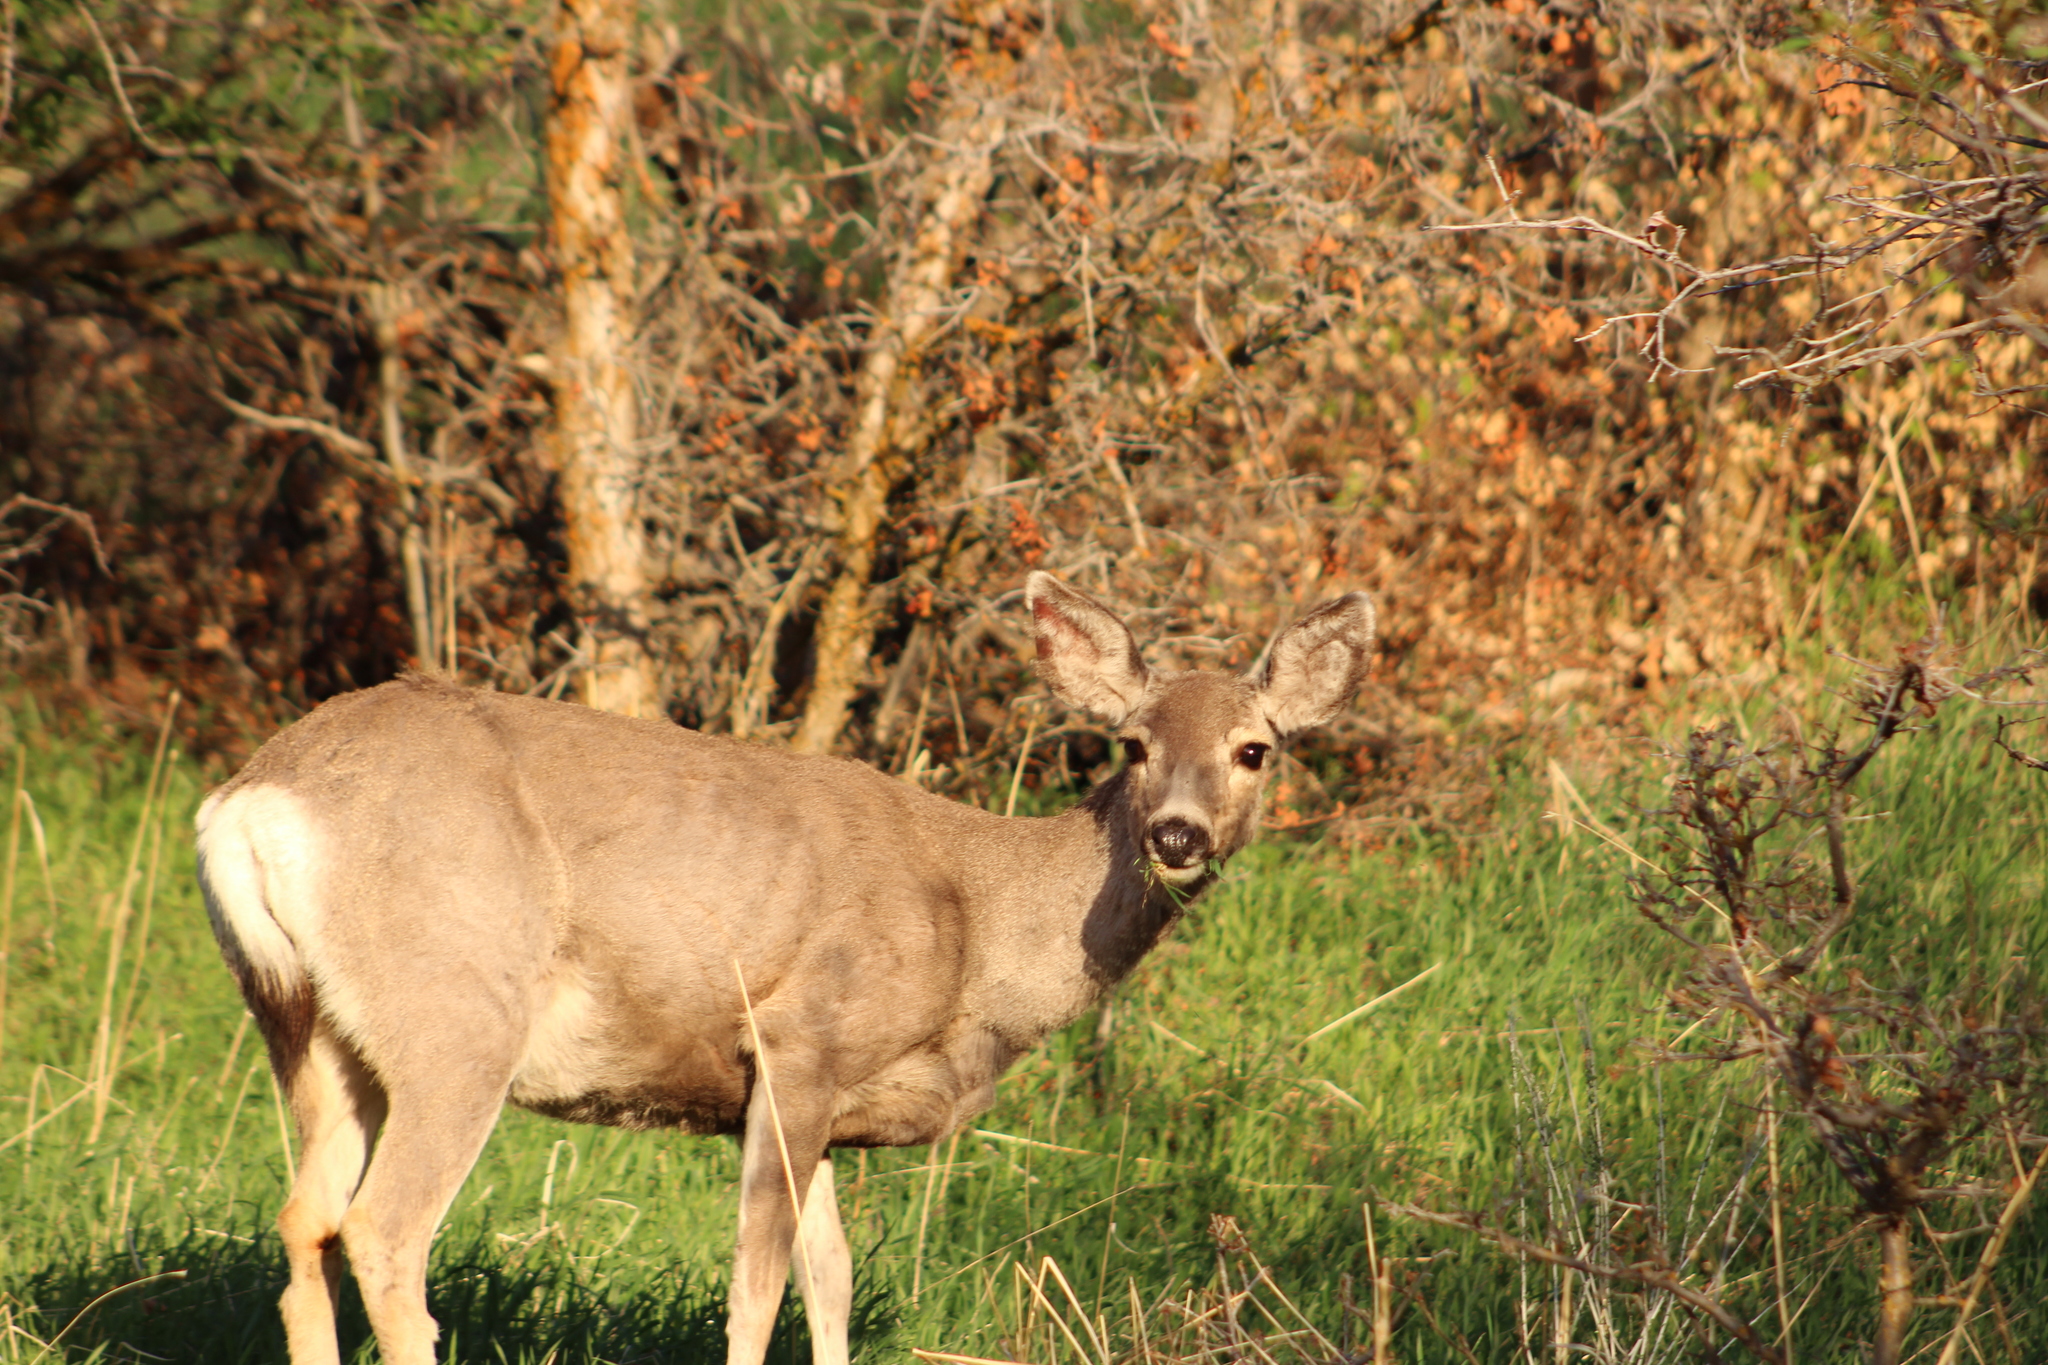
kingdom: Animalia
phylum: Chordata
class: Mammalia
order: Artiodactyla
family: Cervidae
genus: Odocoileus
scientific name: Odocoileus hemionus
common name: Mule deer
